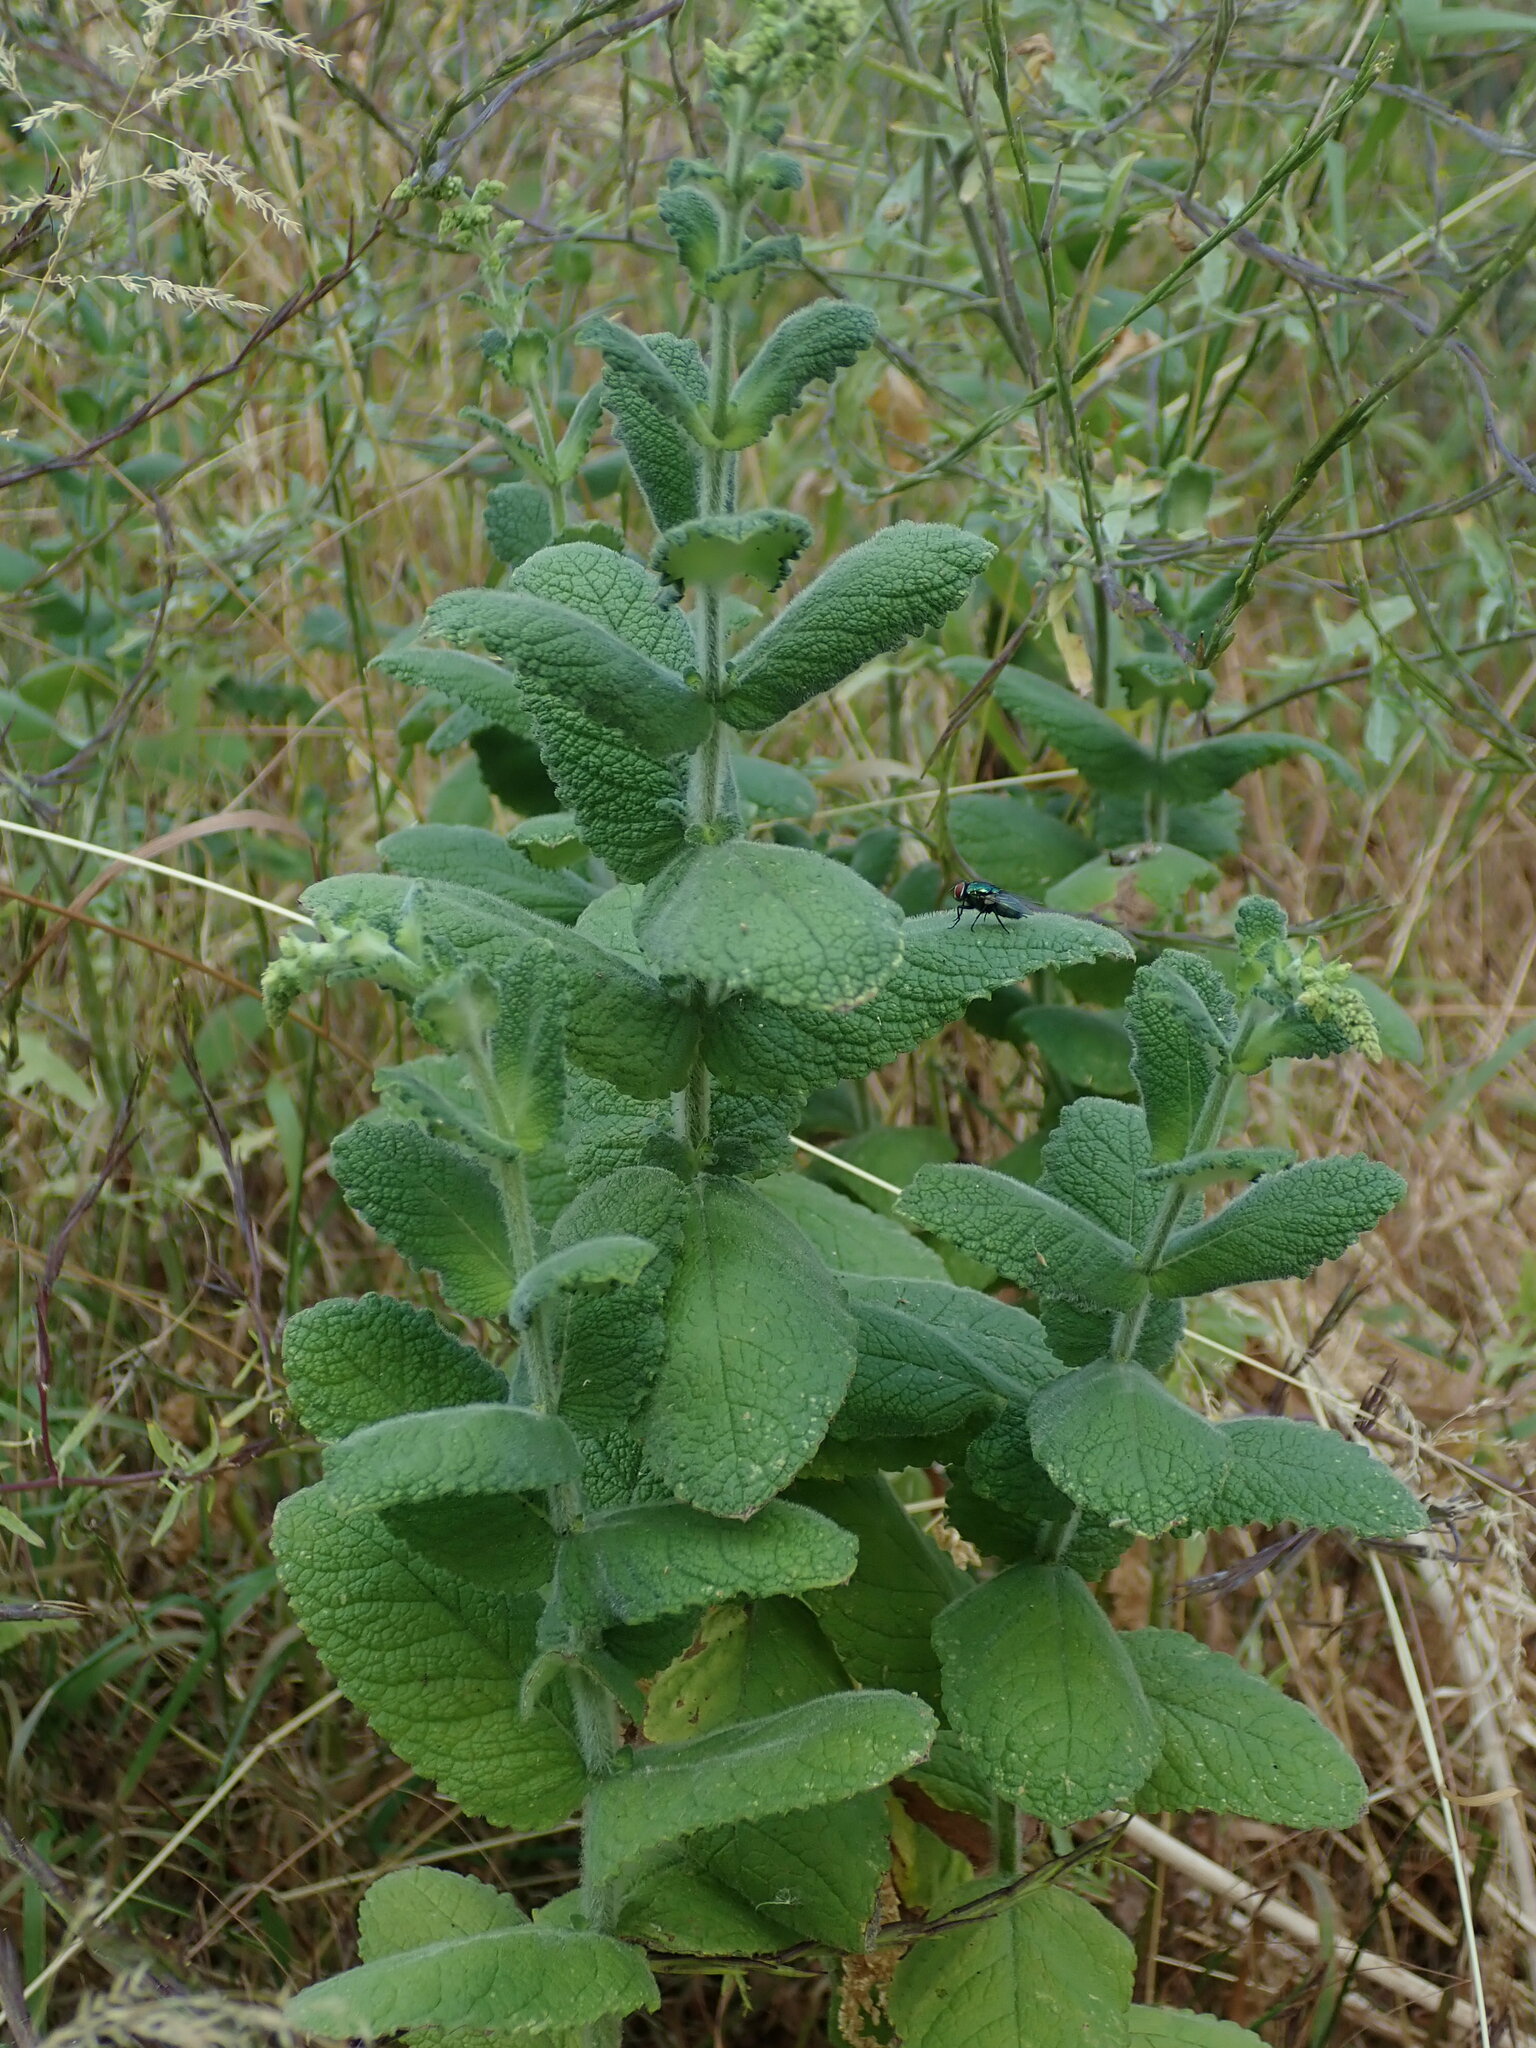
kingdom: Plantae
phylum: Tracheophyta
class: Magnoliopsida
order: Lamiales
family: Lamiaceae
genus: Mentha
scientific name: Mentha suaveolens
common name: Apple mint
